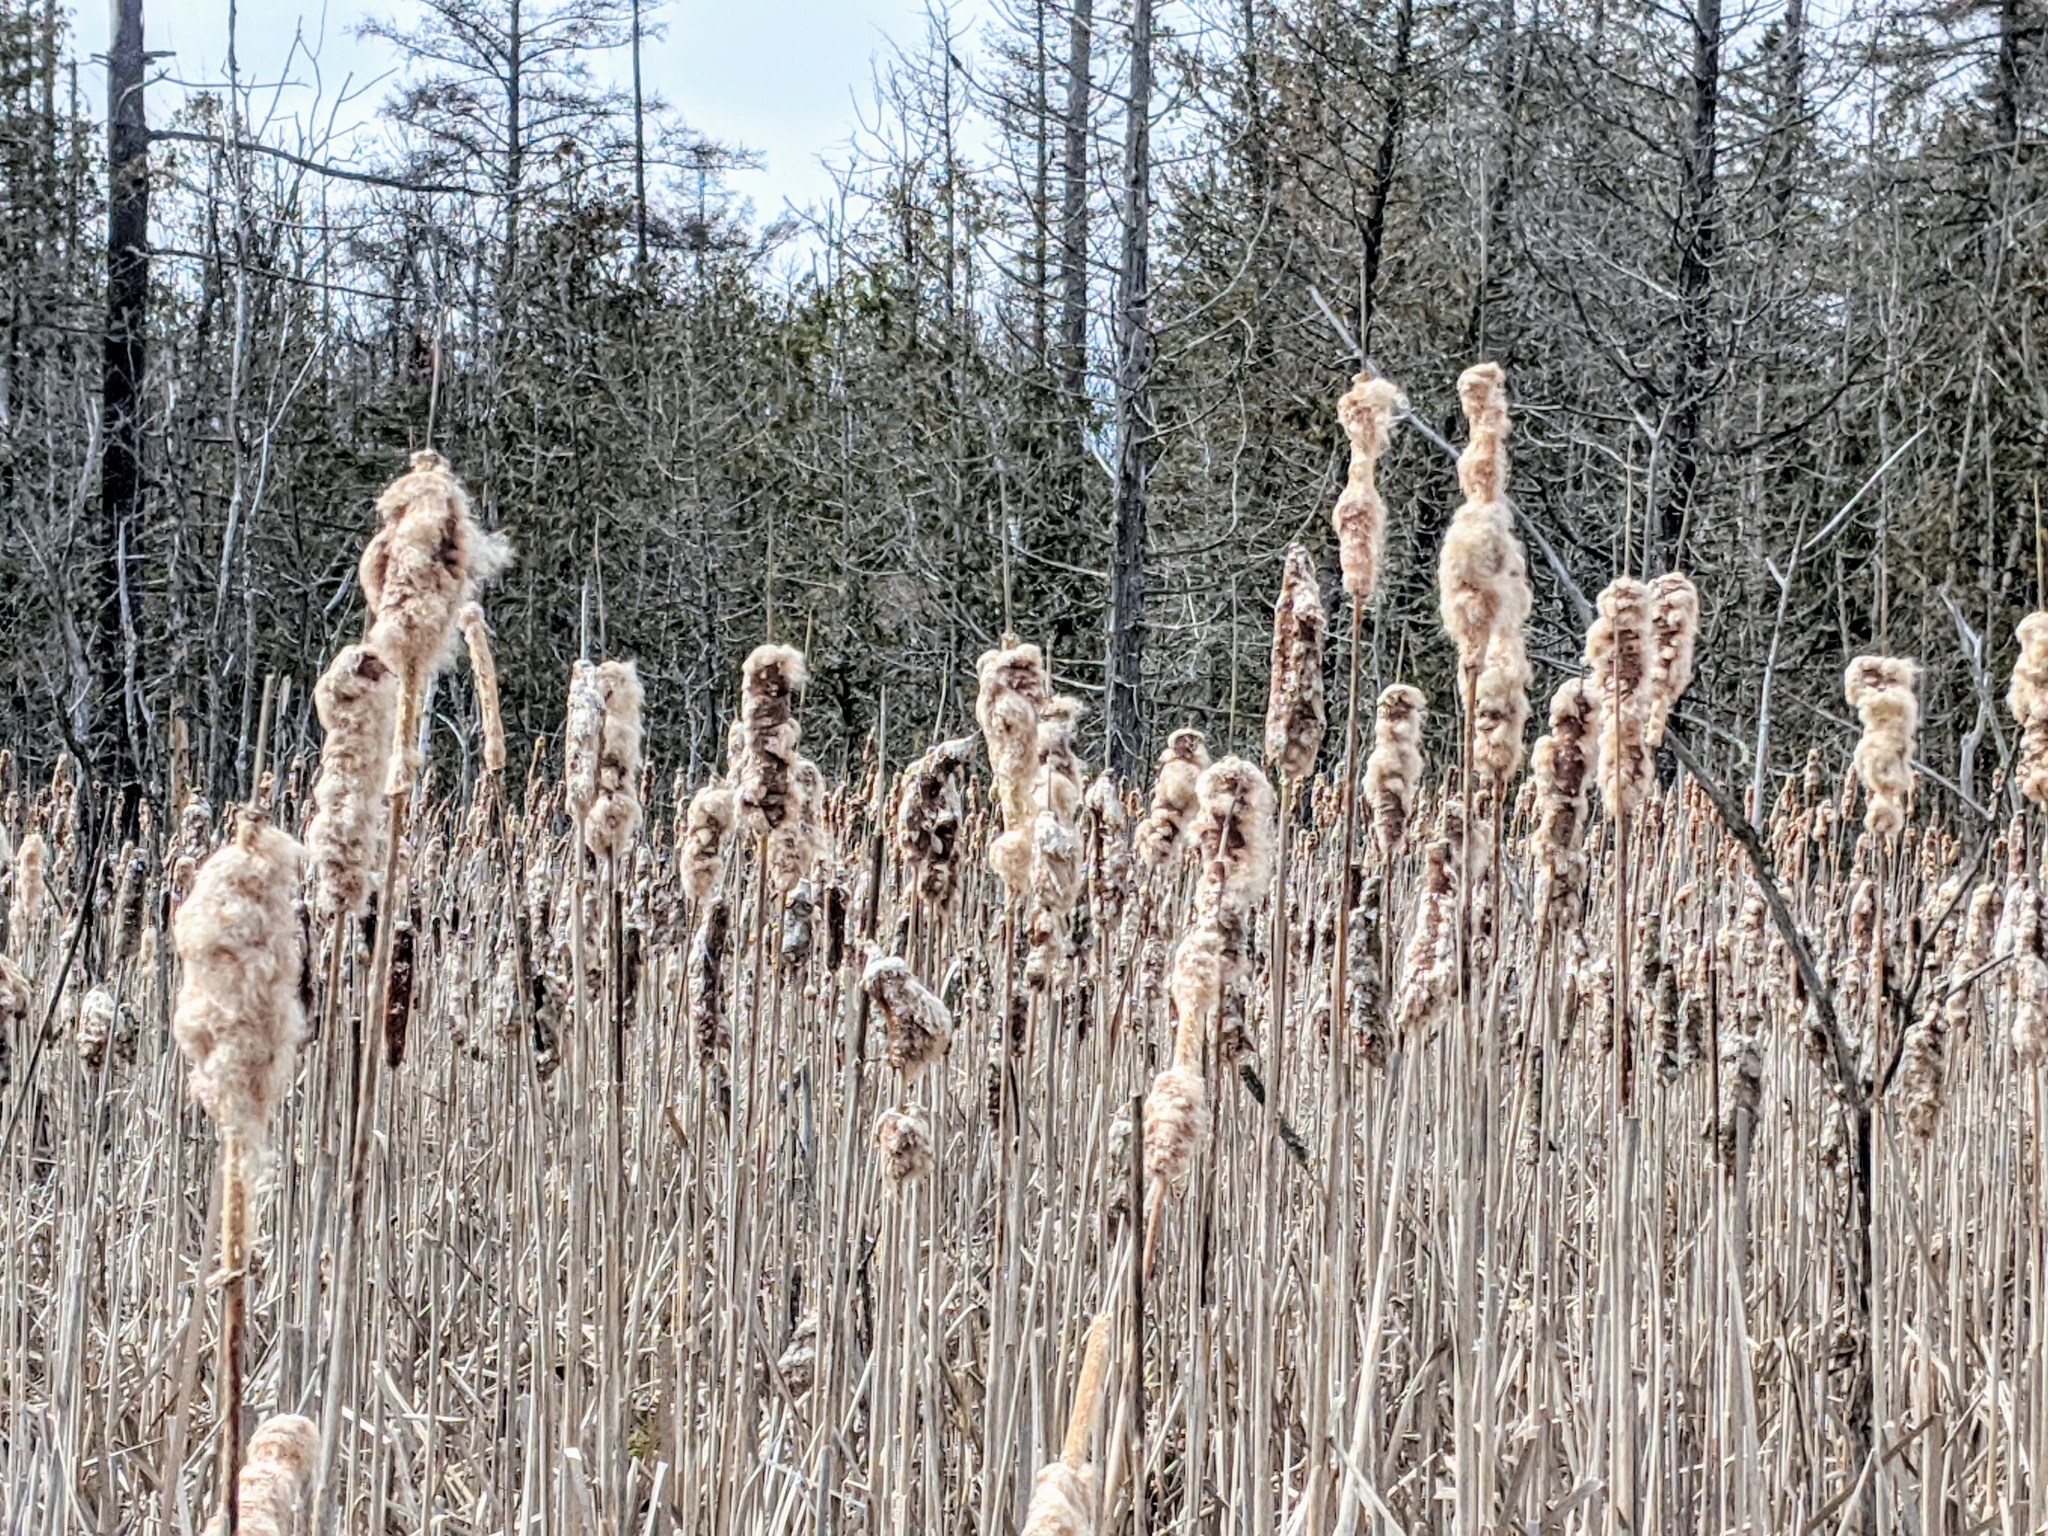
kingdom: Plantae
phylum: Tracheophyta
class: Liliopsida
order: Poales
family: Typhaceae
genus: Typha
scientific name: Typha
